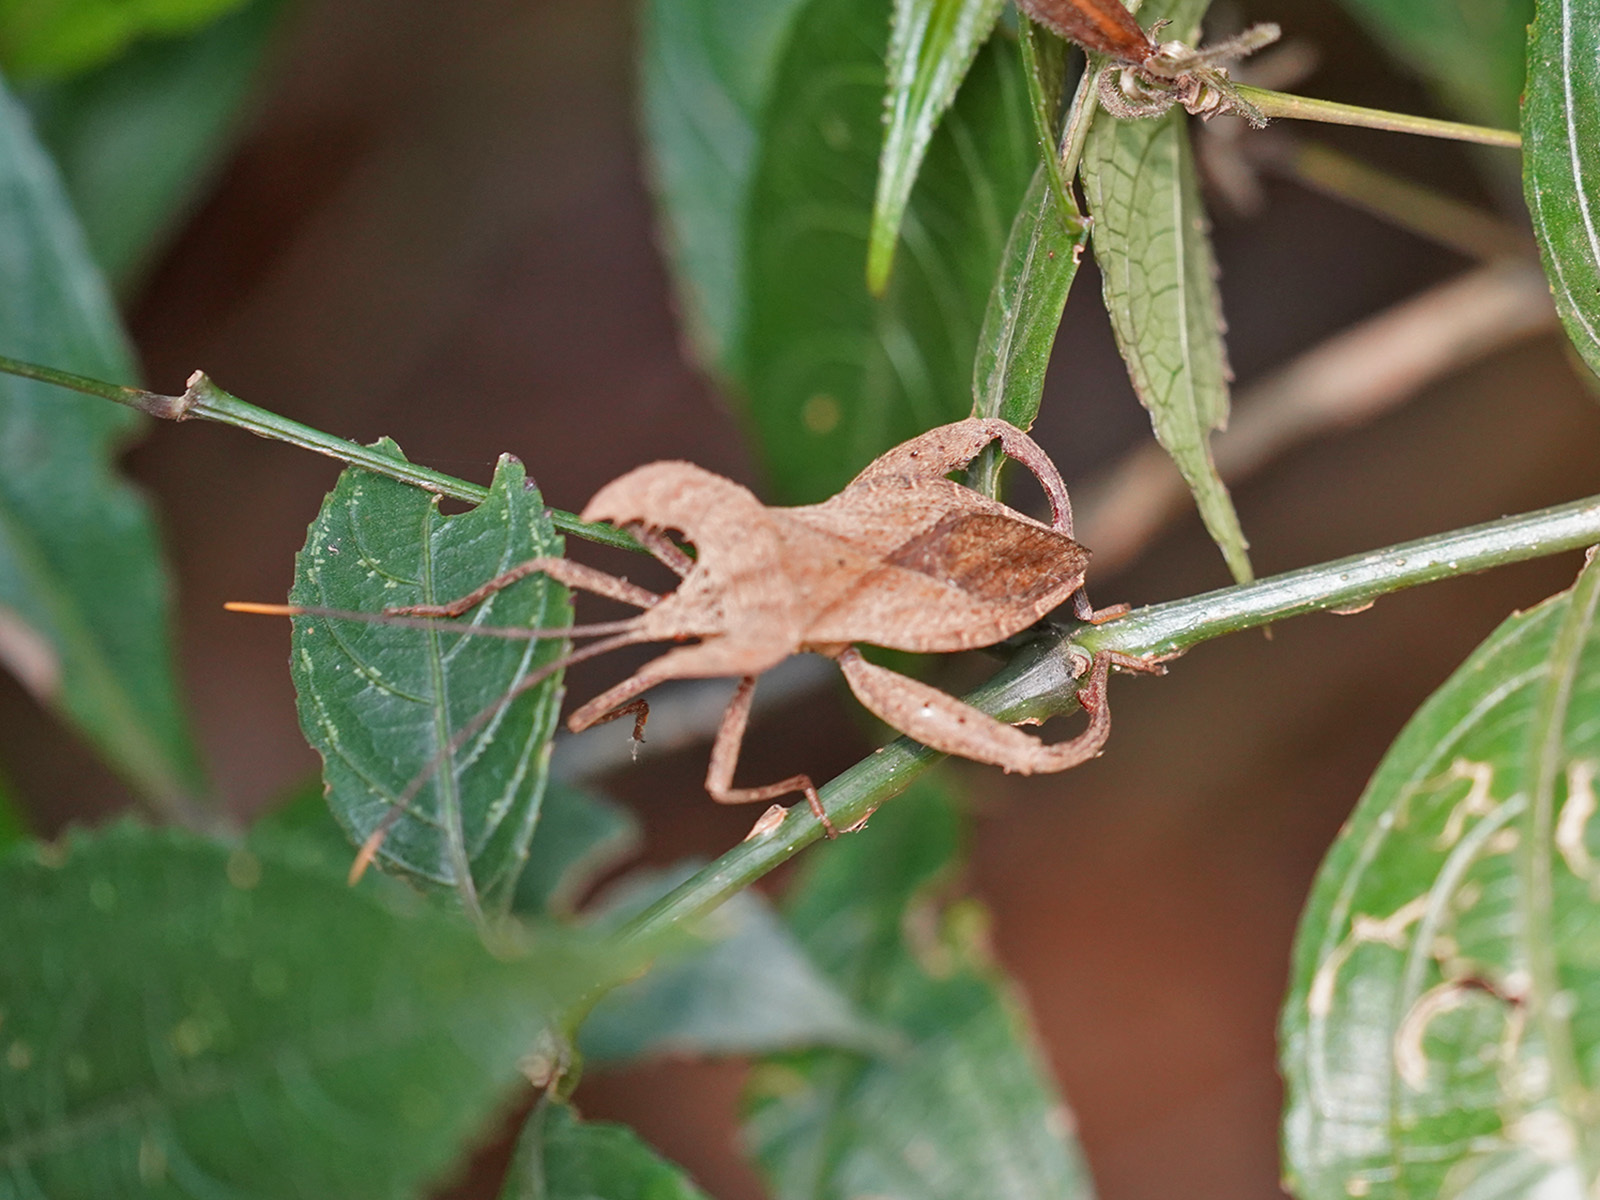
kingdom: Animalia
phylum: Arthropoda
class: Insecta
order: Hemiptera
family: Coreidae
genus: Molipteryx
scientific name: Molipteryx hardwickii
